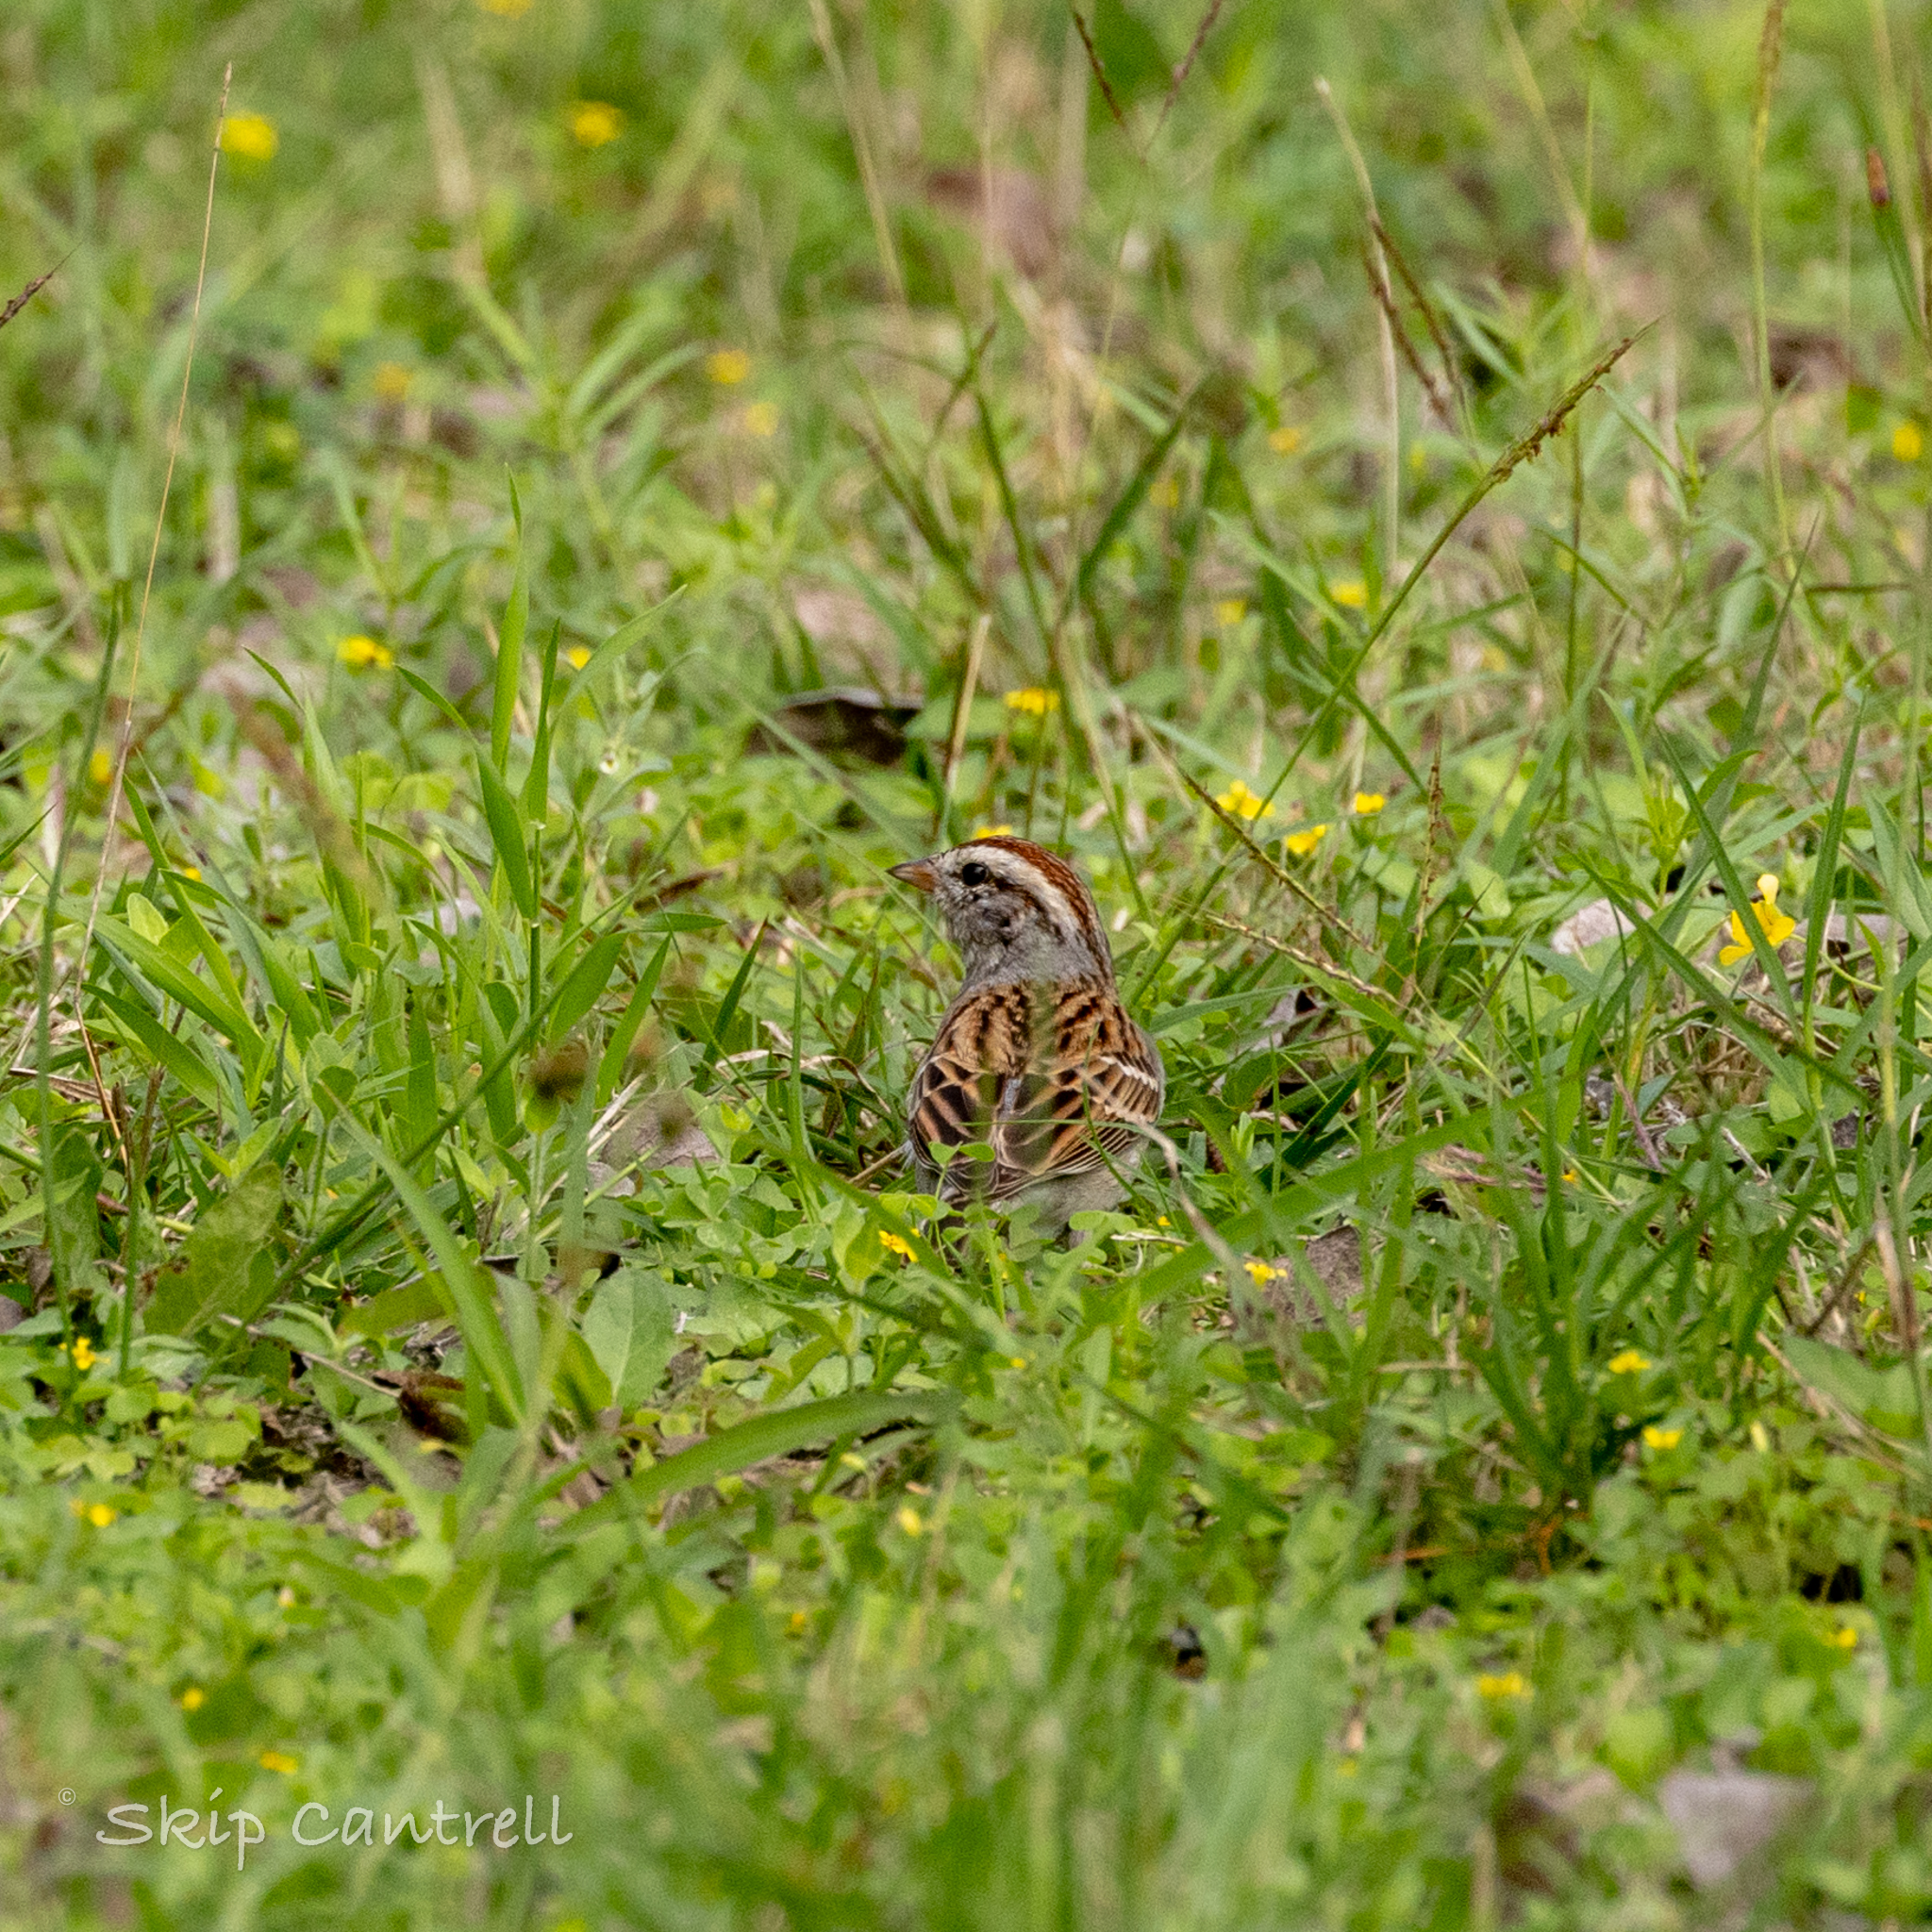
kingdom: Animalia
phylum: Chordata
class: Aves
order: Passeriformes
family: Passerellidae
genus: Spizella
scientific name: Spizella passerina
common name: Chipping sparrow
